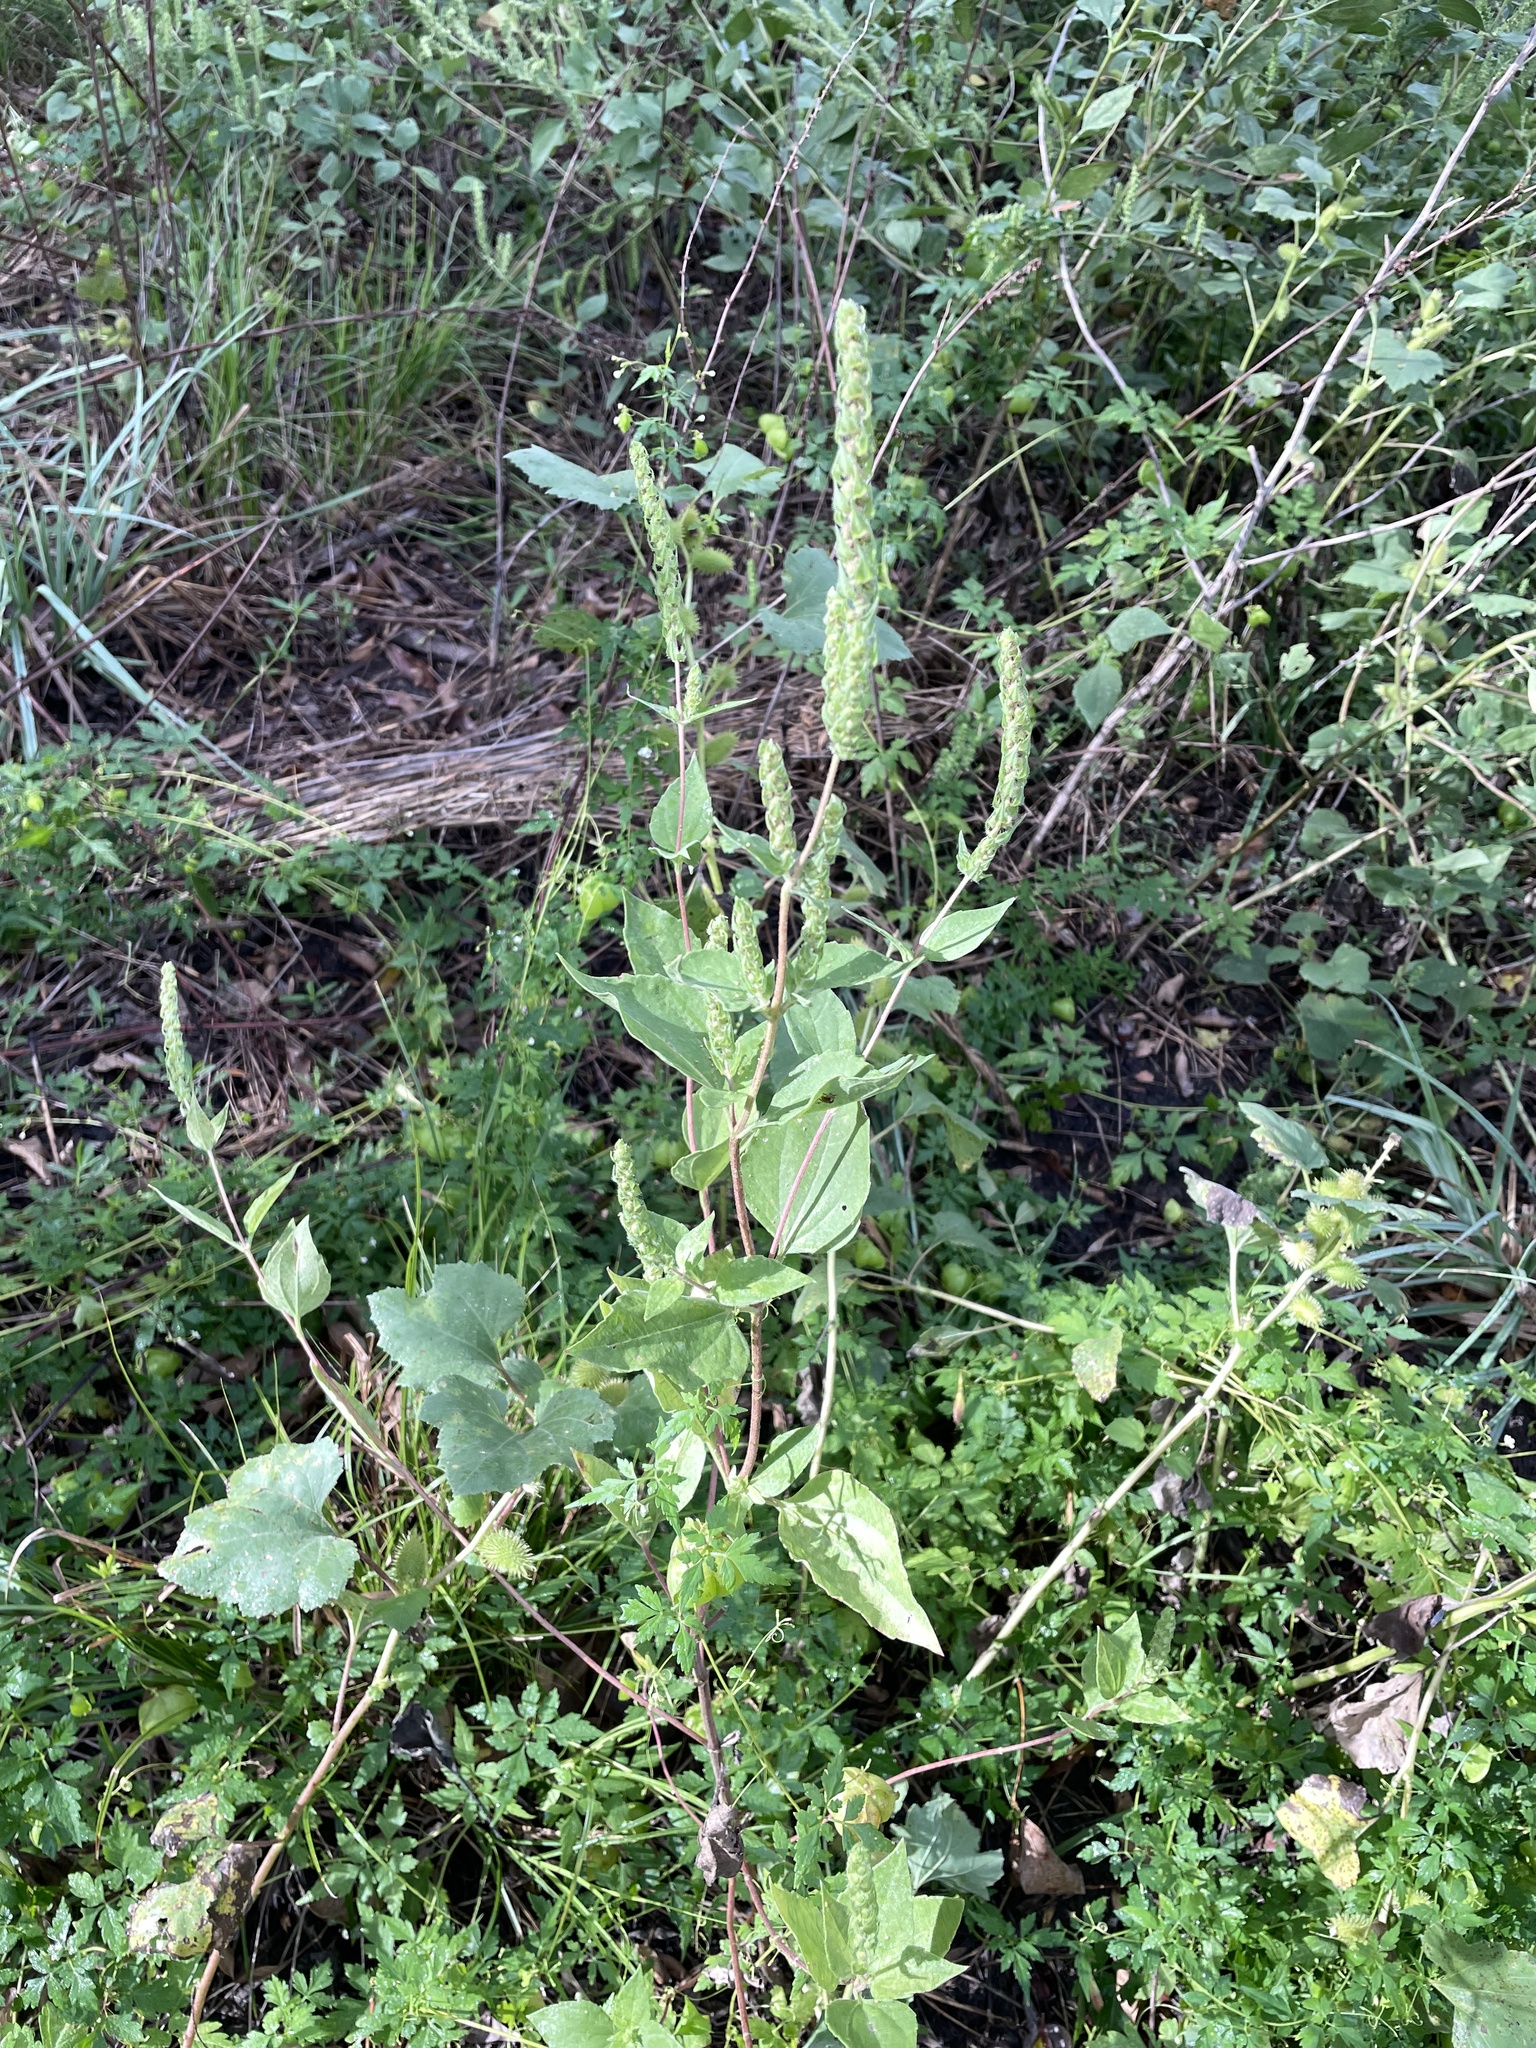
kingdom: Plantae
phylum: Tracheophyta
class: Magnoliopsida
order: Asterales
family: Asteraceae
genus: Iva
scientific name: Iva annua
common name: Marsh-elder
